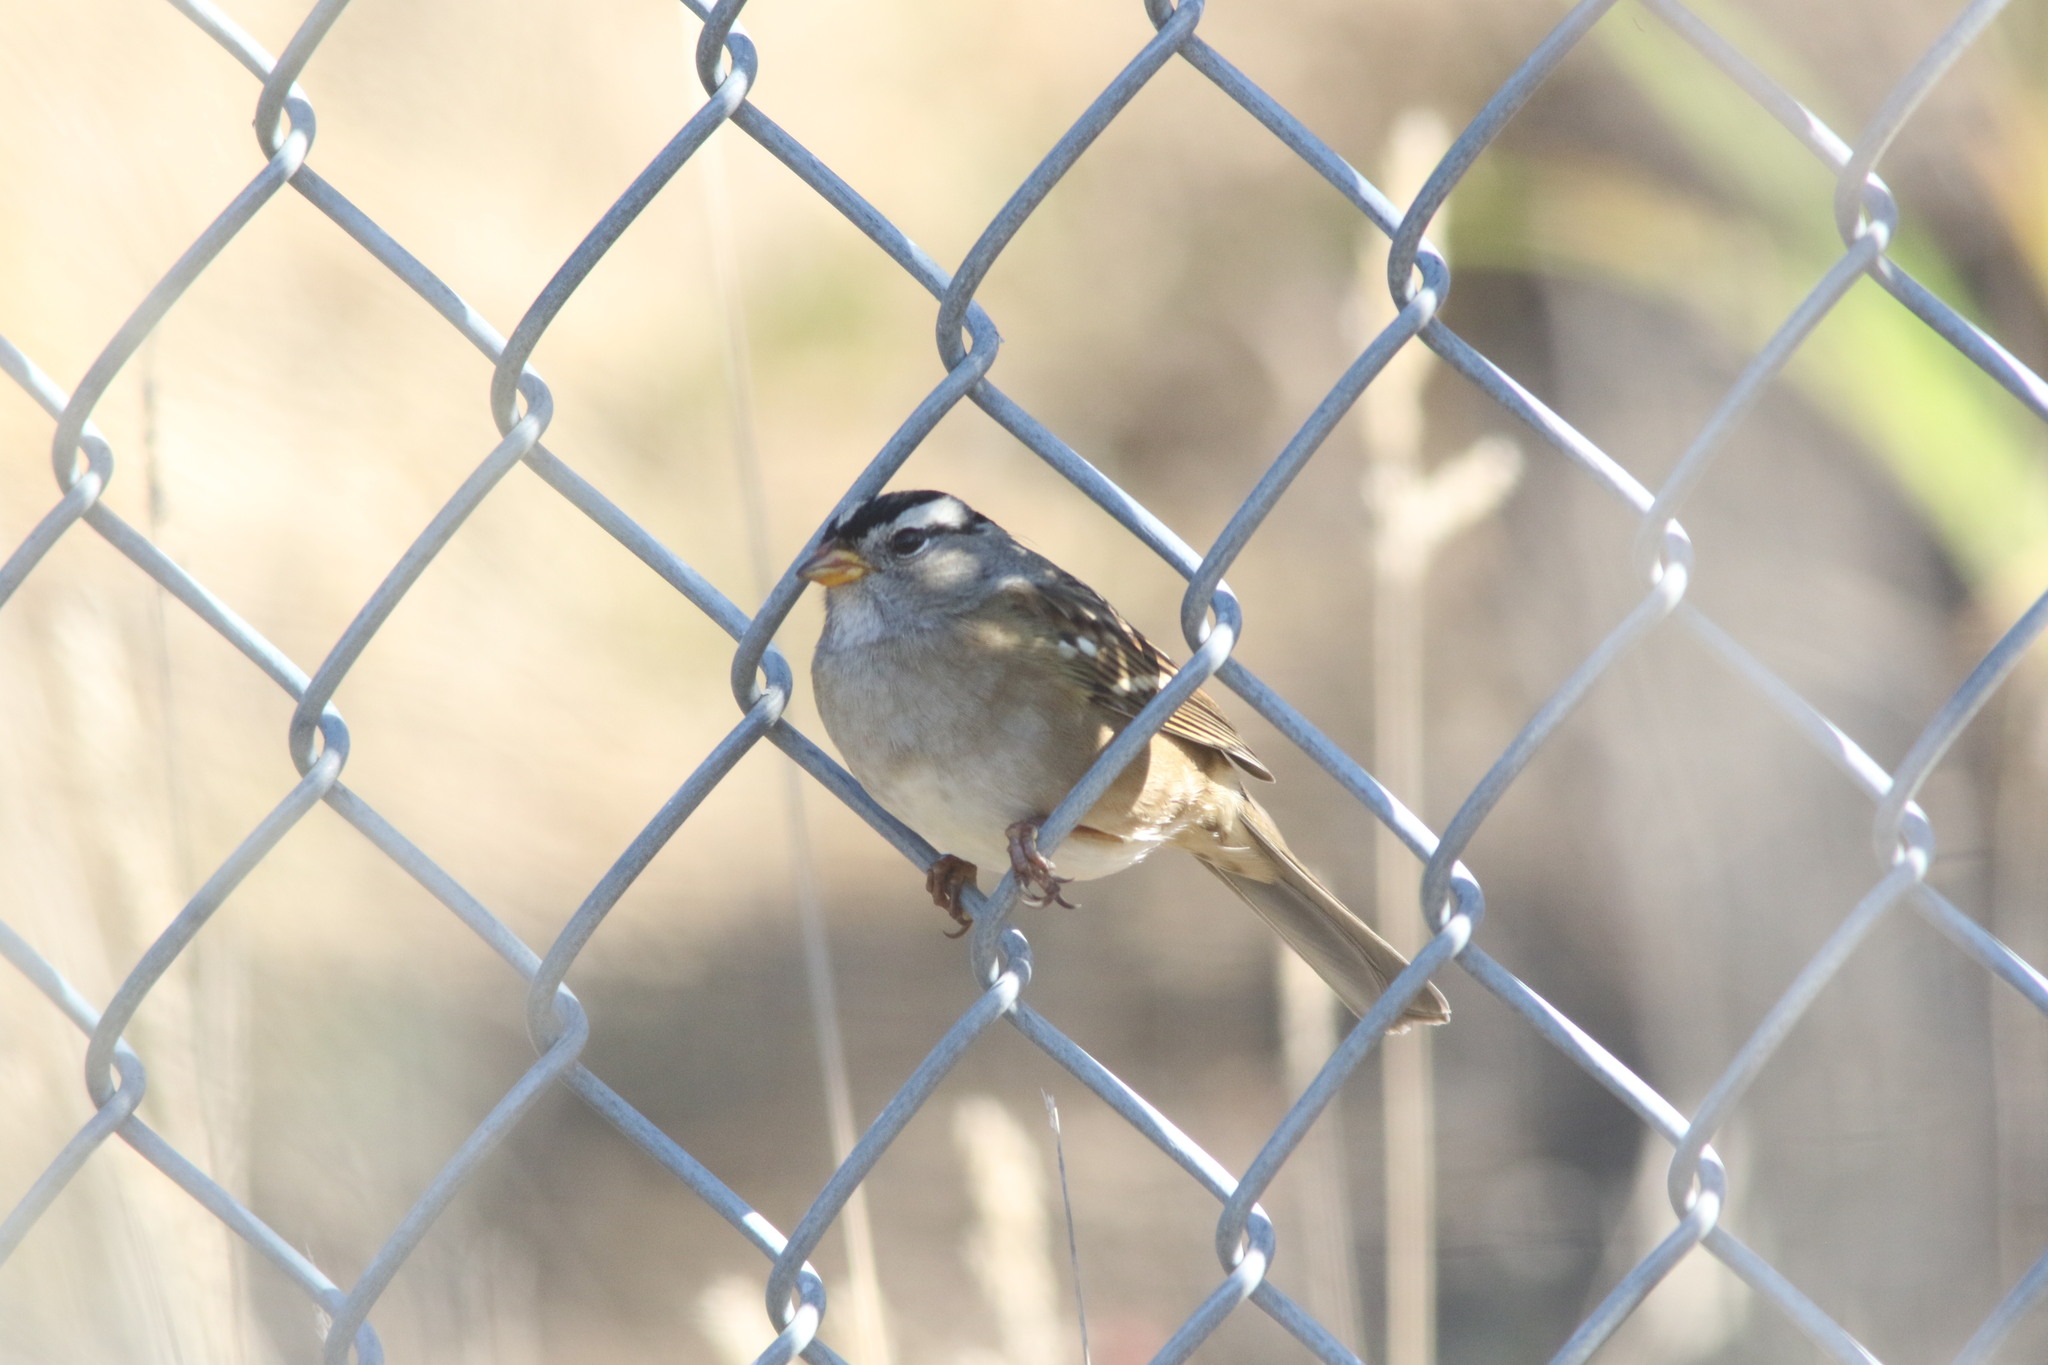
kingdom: Animalia
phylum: Chordata
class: Aves
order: Passeriformes
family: Passerellidae
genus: Zonotrichia
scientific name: Zonotrichia leucophrys
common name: White-crowned sparrow
